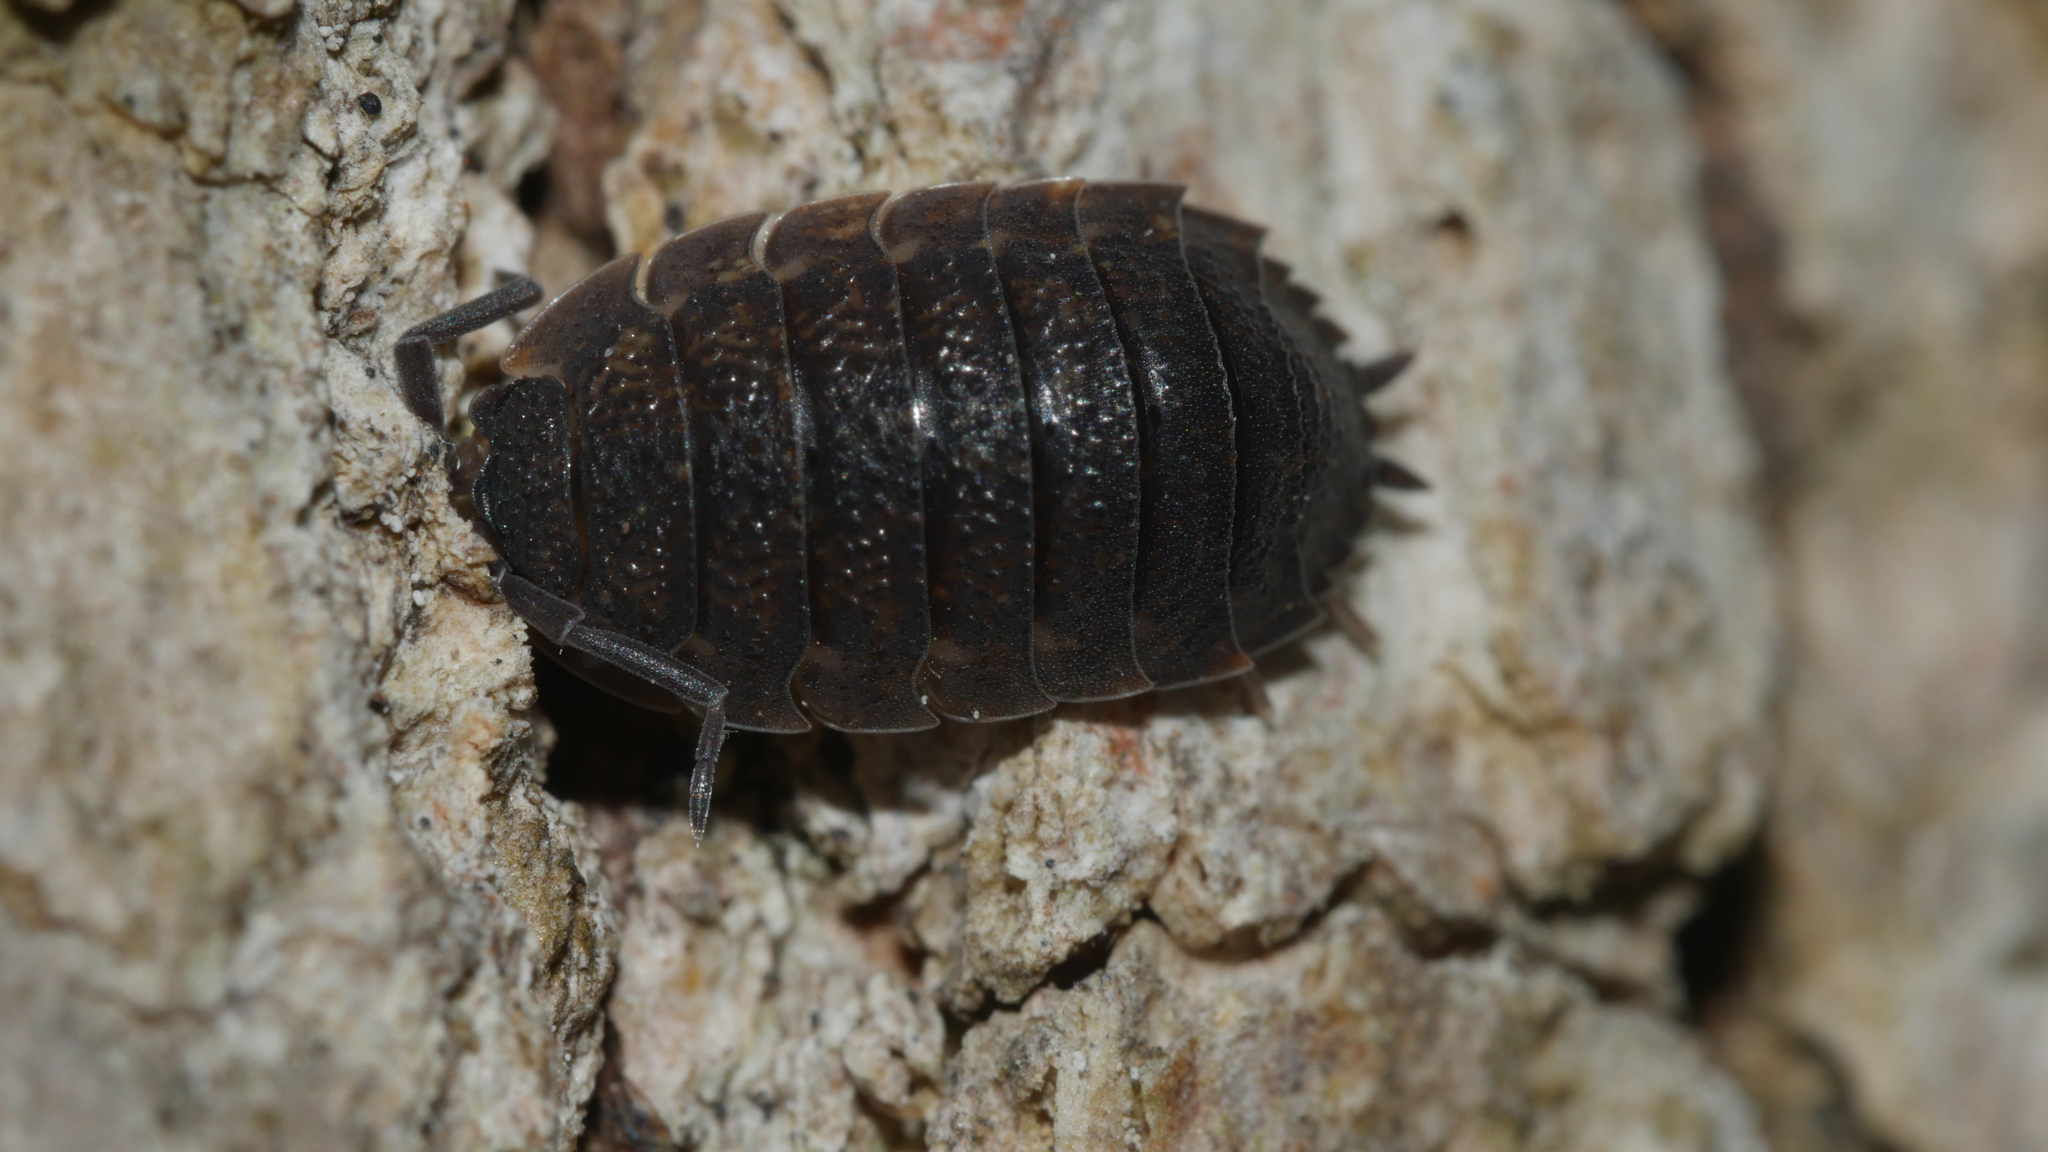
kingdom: Animalia
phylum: Arthropoda
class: Malacostraca
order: Isopoda
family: Porcellionidae
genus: Porcellio
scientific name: Porcellio scaber
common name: Common rough woodlouse
